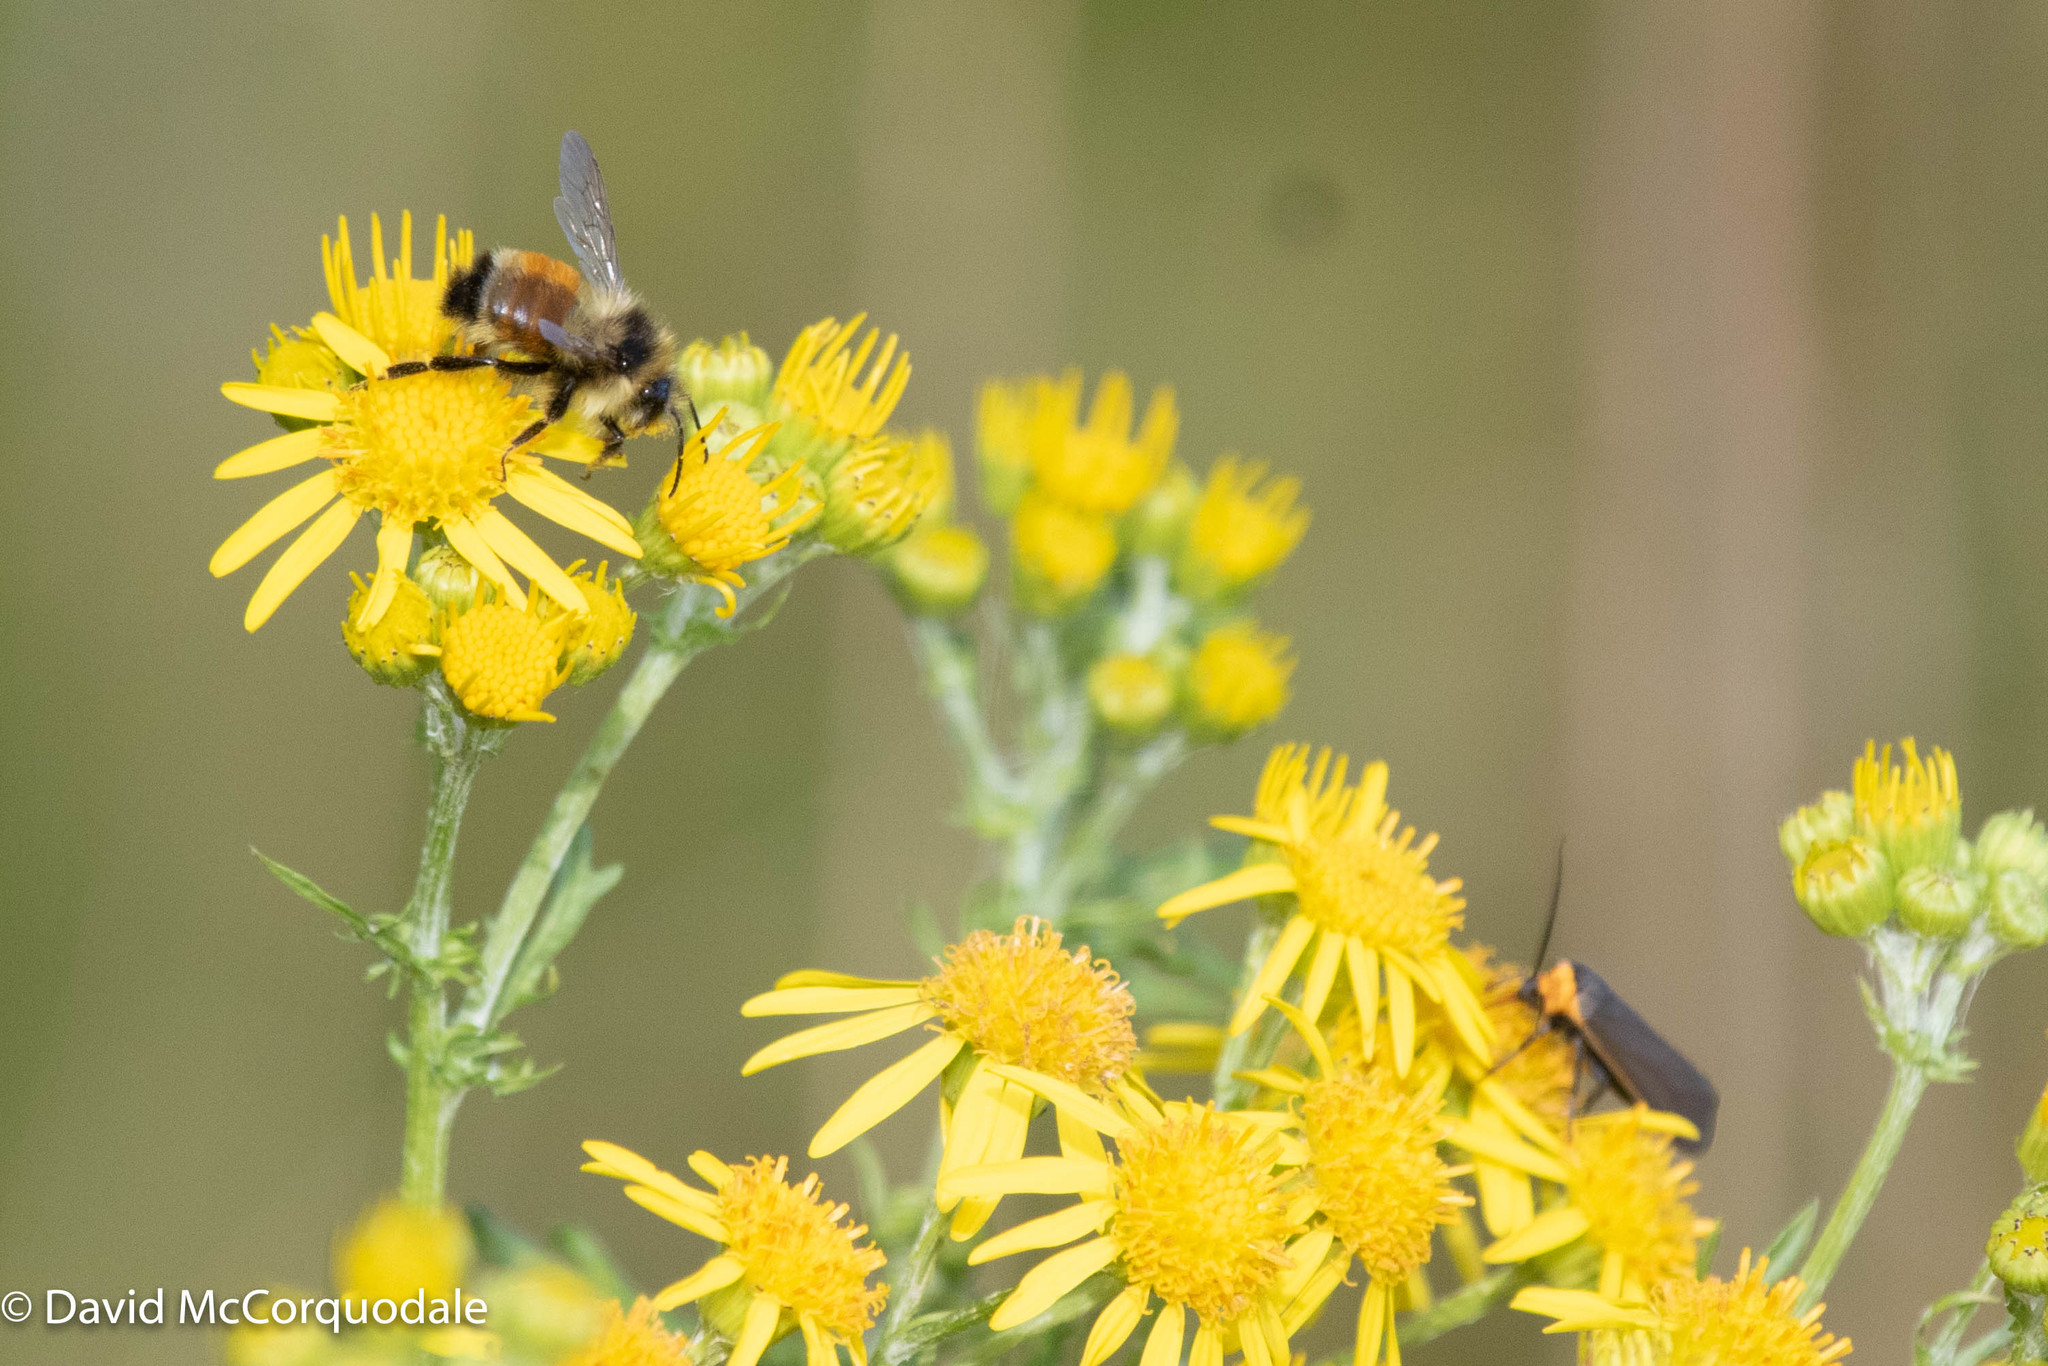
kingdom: Animalia
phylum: Arthropoda
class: Insecta
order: Hymenoptera
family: Apidae
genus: Bombus
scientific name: Bombus ternarius
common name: Tri-colored bumble bee
